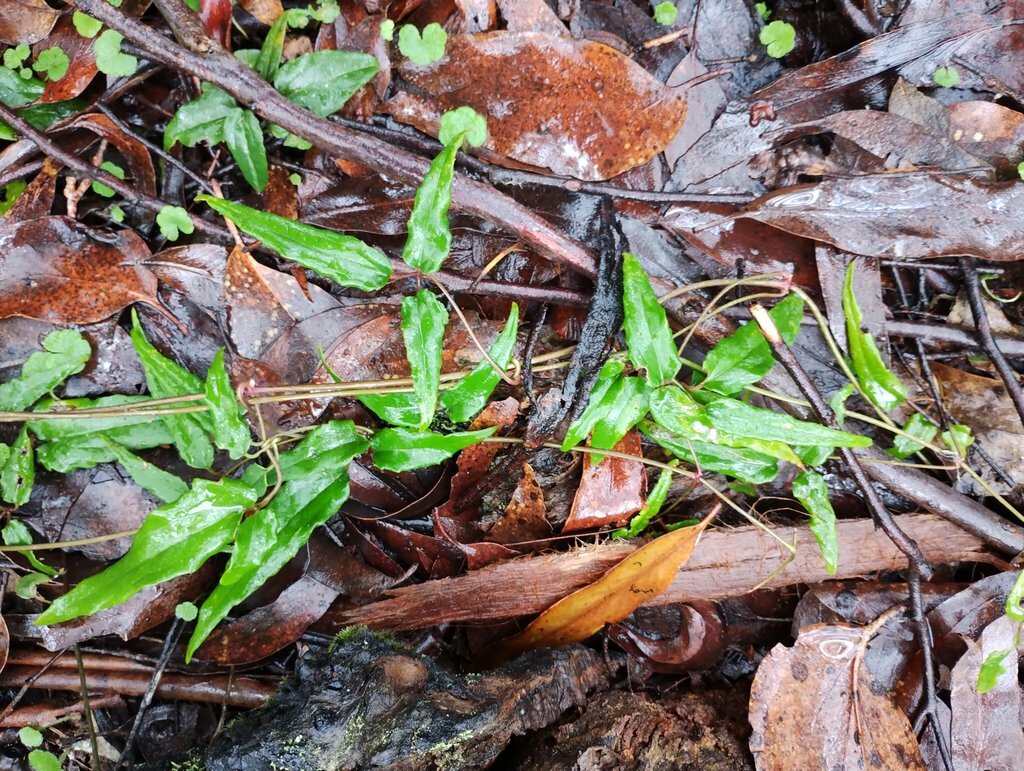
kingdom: Plantae
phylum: Tracheophyta
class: Magnoliopsida
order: Ranunculales
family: Ranunculaceae
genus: Clematis
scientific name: Clematis aristata
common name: Mountain clematis
